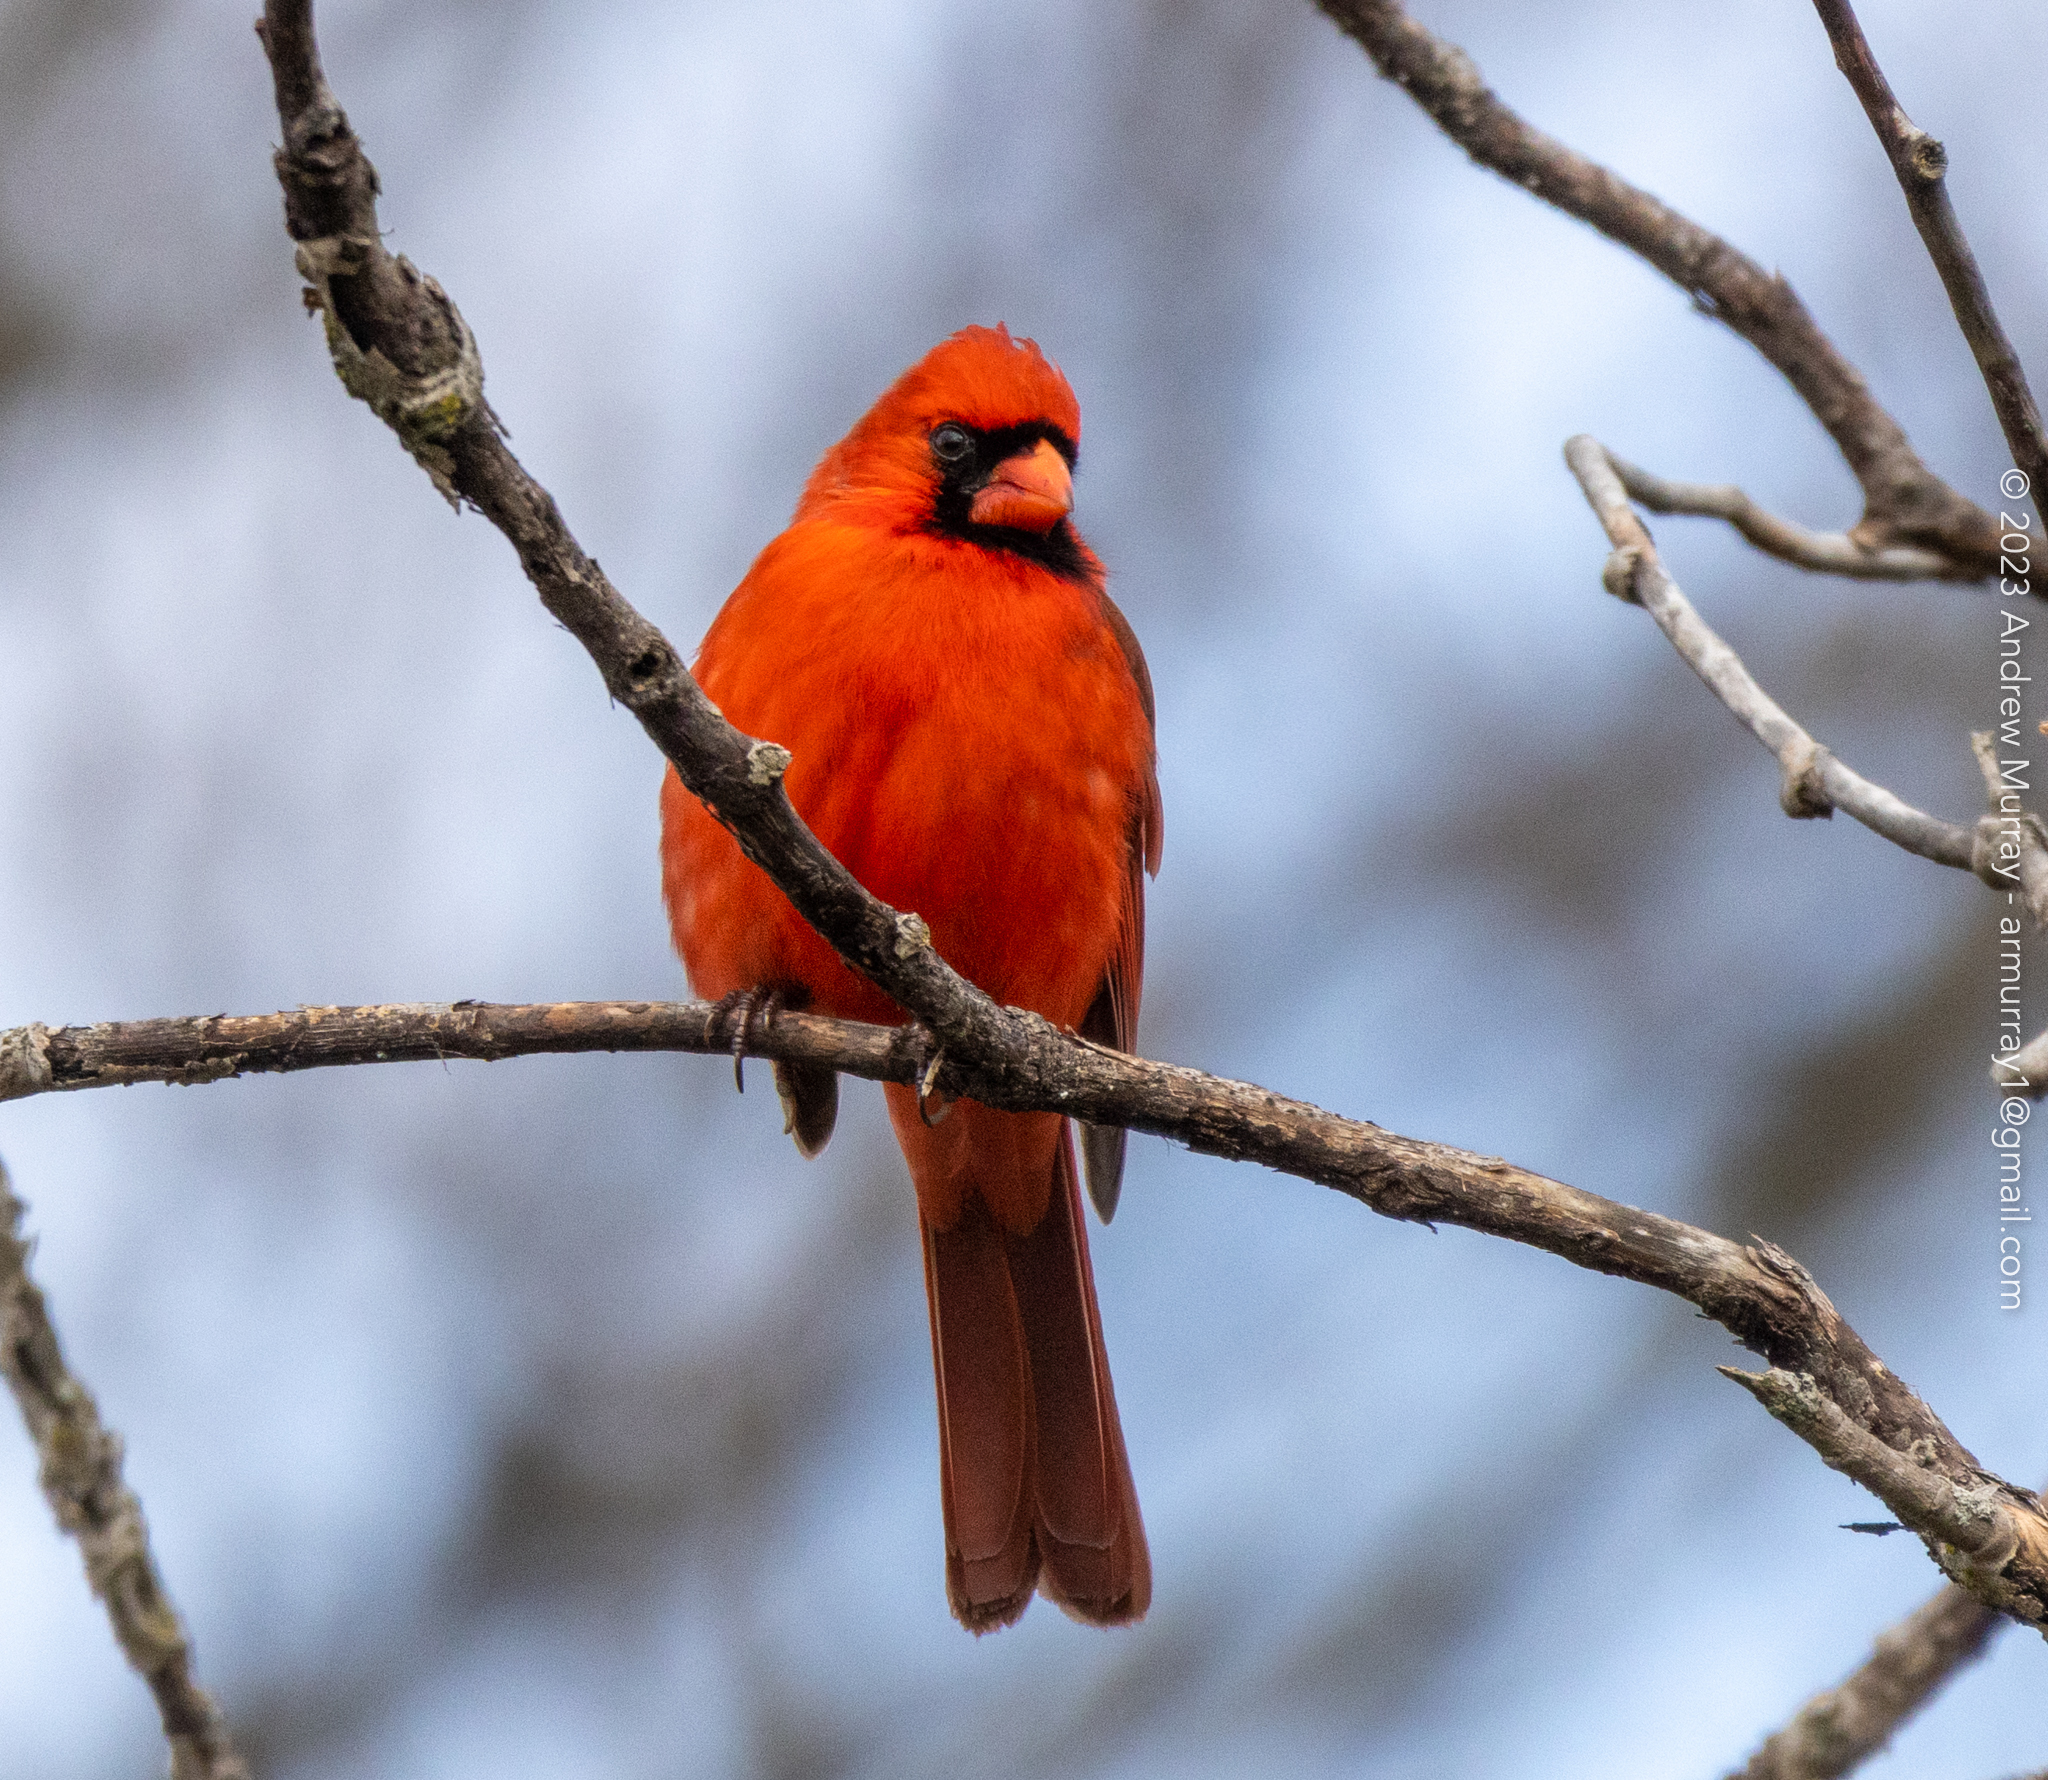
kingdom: Animalia
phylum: Chordata
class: Aves
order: Passeriformes
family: Cardinalidae
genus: Cardinalis
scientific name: Cardinalis cardinalis
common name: Northern cardinal
